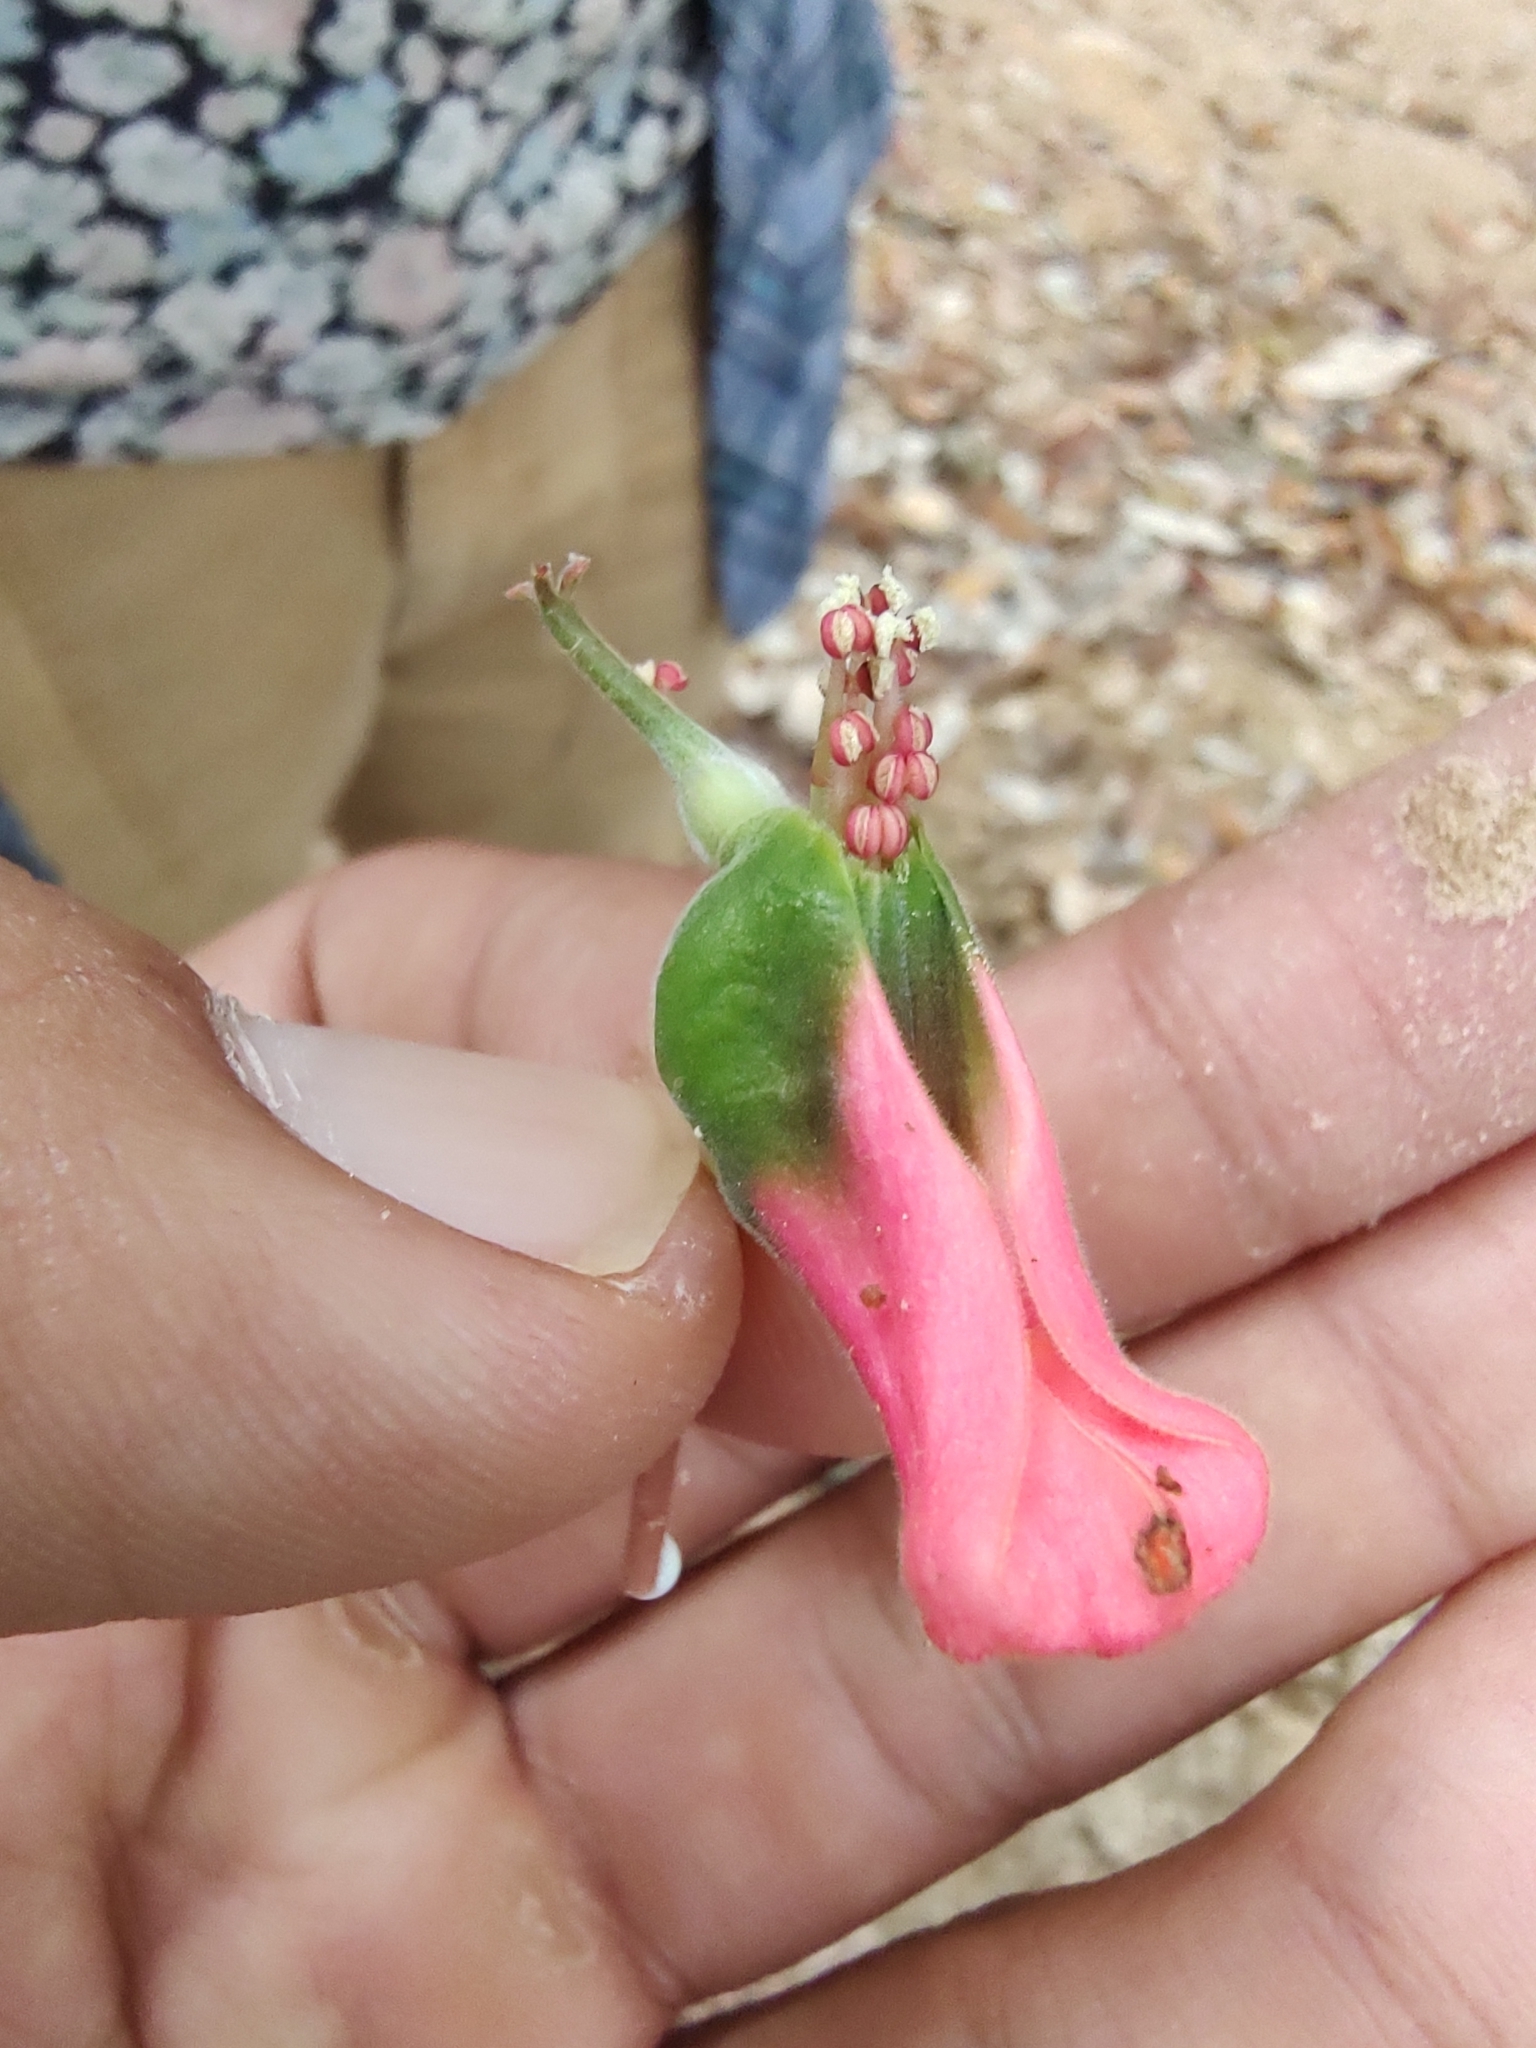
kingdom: Plantae
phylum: Tracheophyta
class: Magnoliopsida
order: Malpighiales
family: Euphorbiaceae
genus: Euphorbia
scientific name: Euphorbia peritropoides
